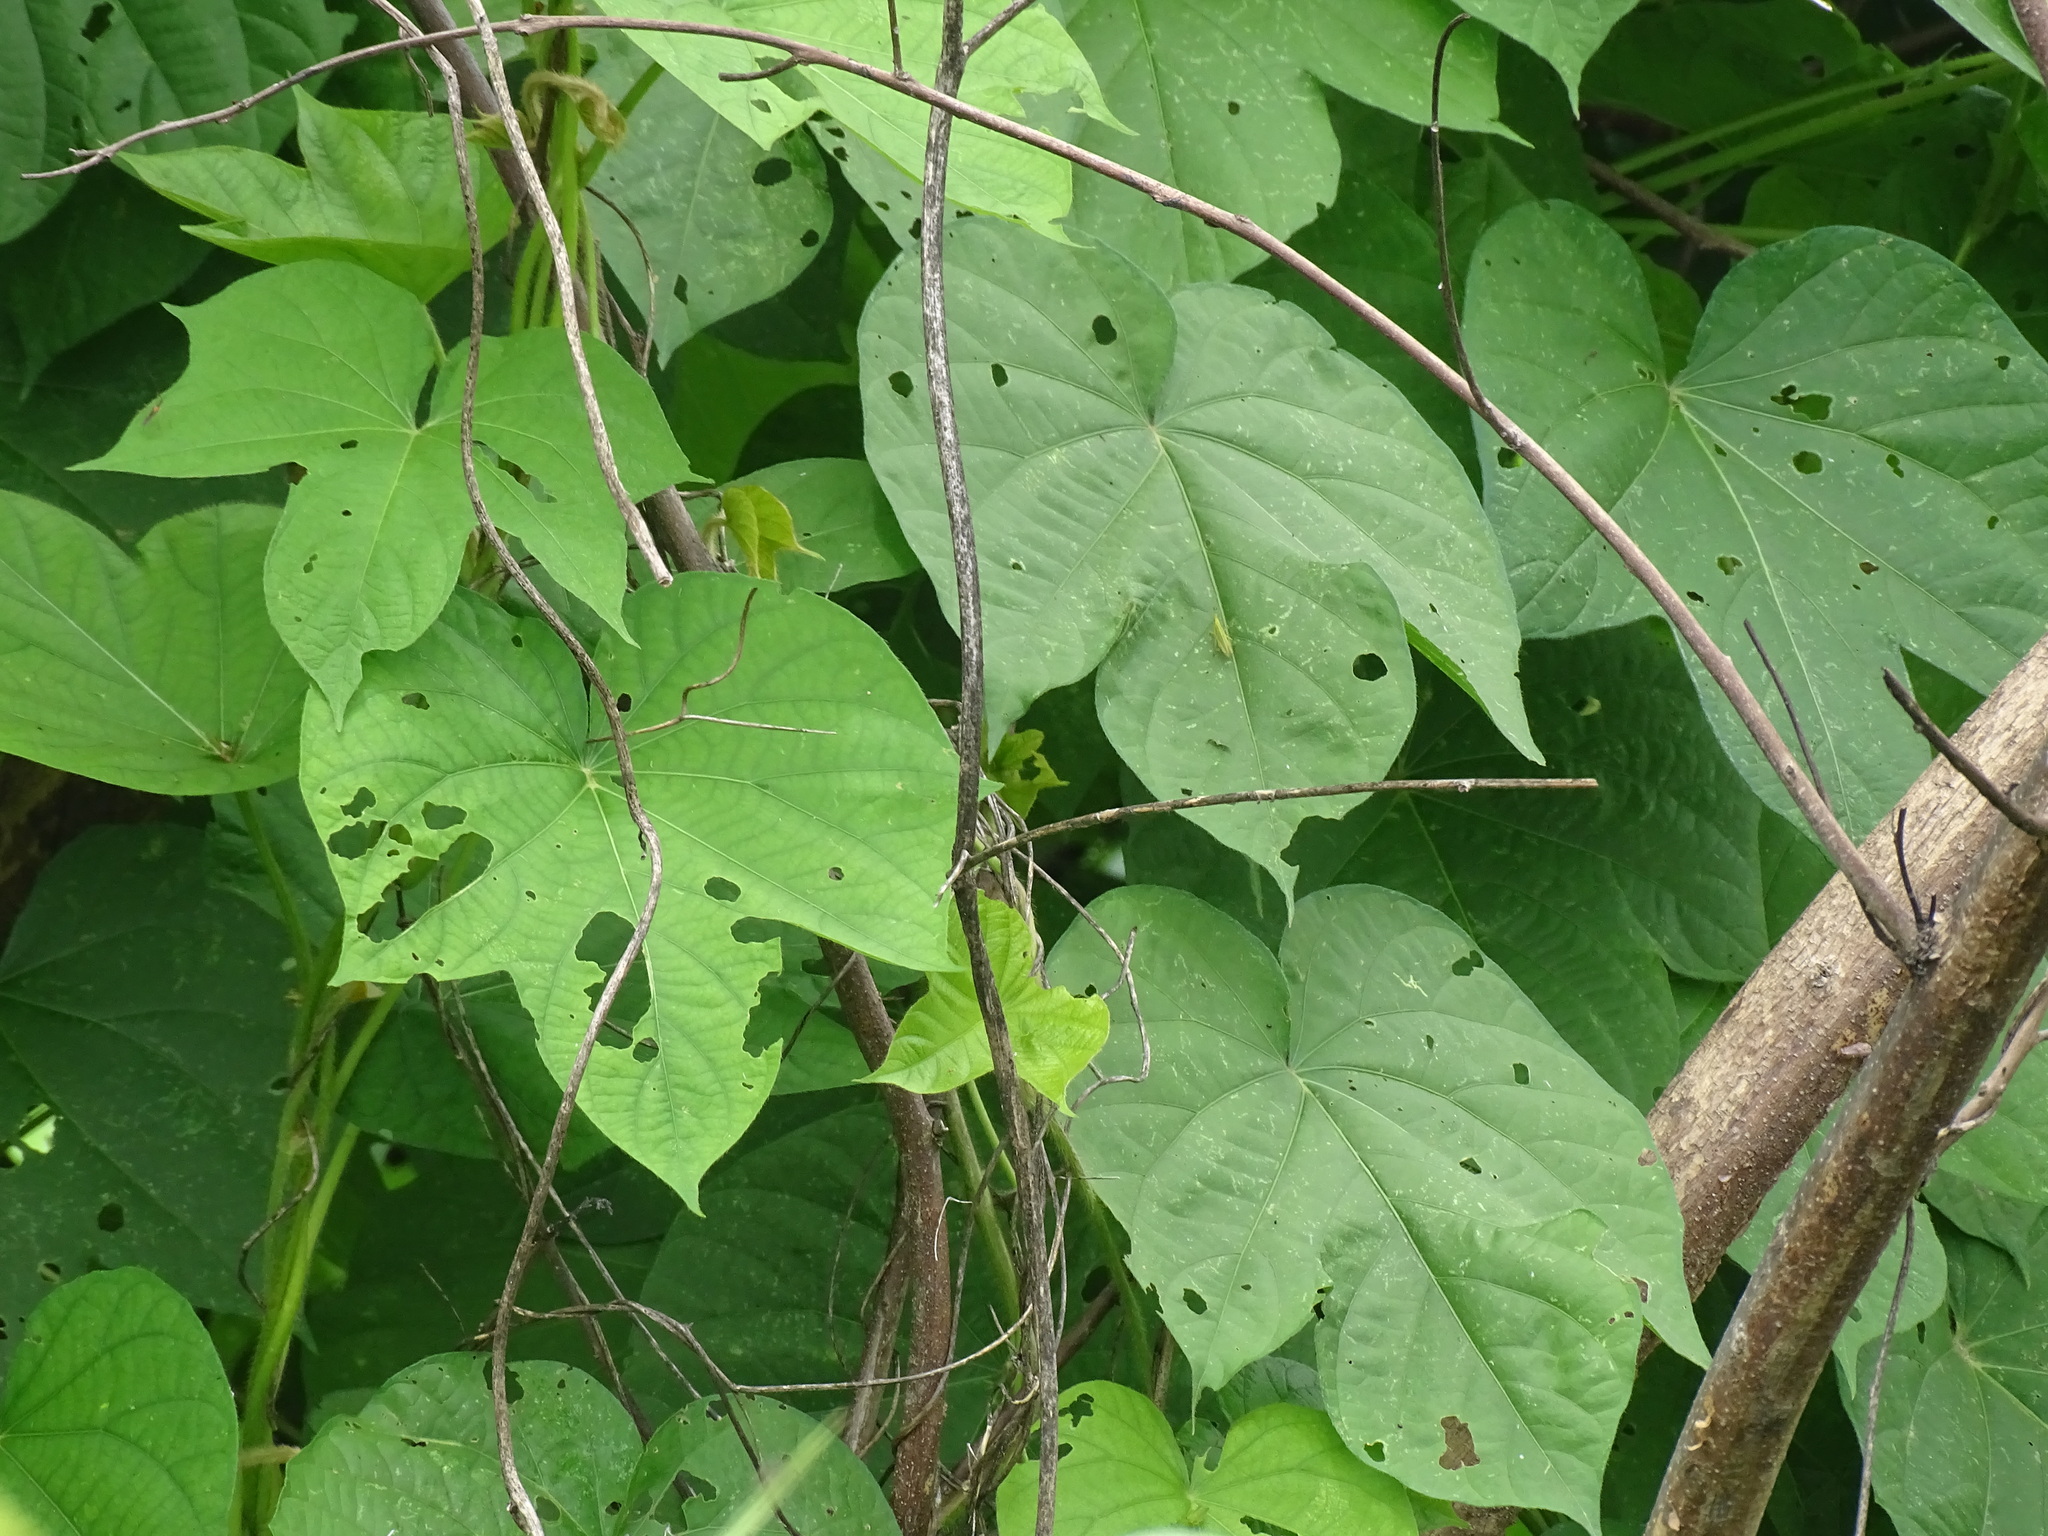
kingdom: Plantae
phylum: Tracheophyta
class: Magnoliopsida
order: Solanales
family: Convolvulaceae
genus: Ipomoea
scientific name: Ipomoea nil
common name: Japanese morning-glory
